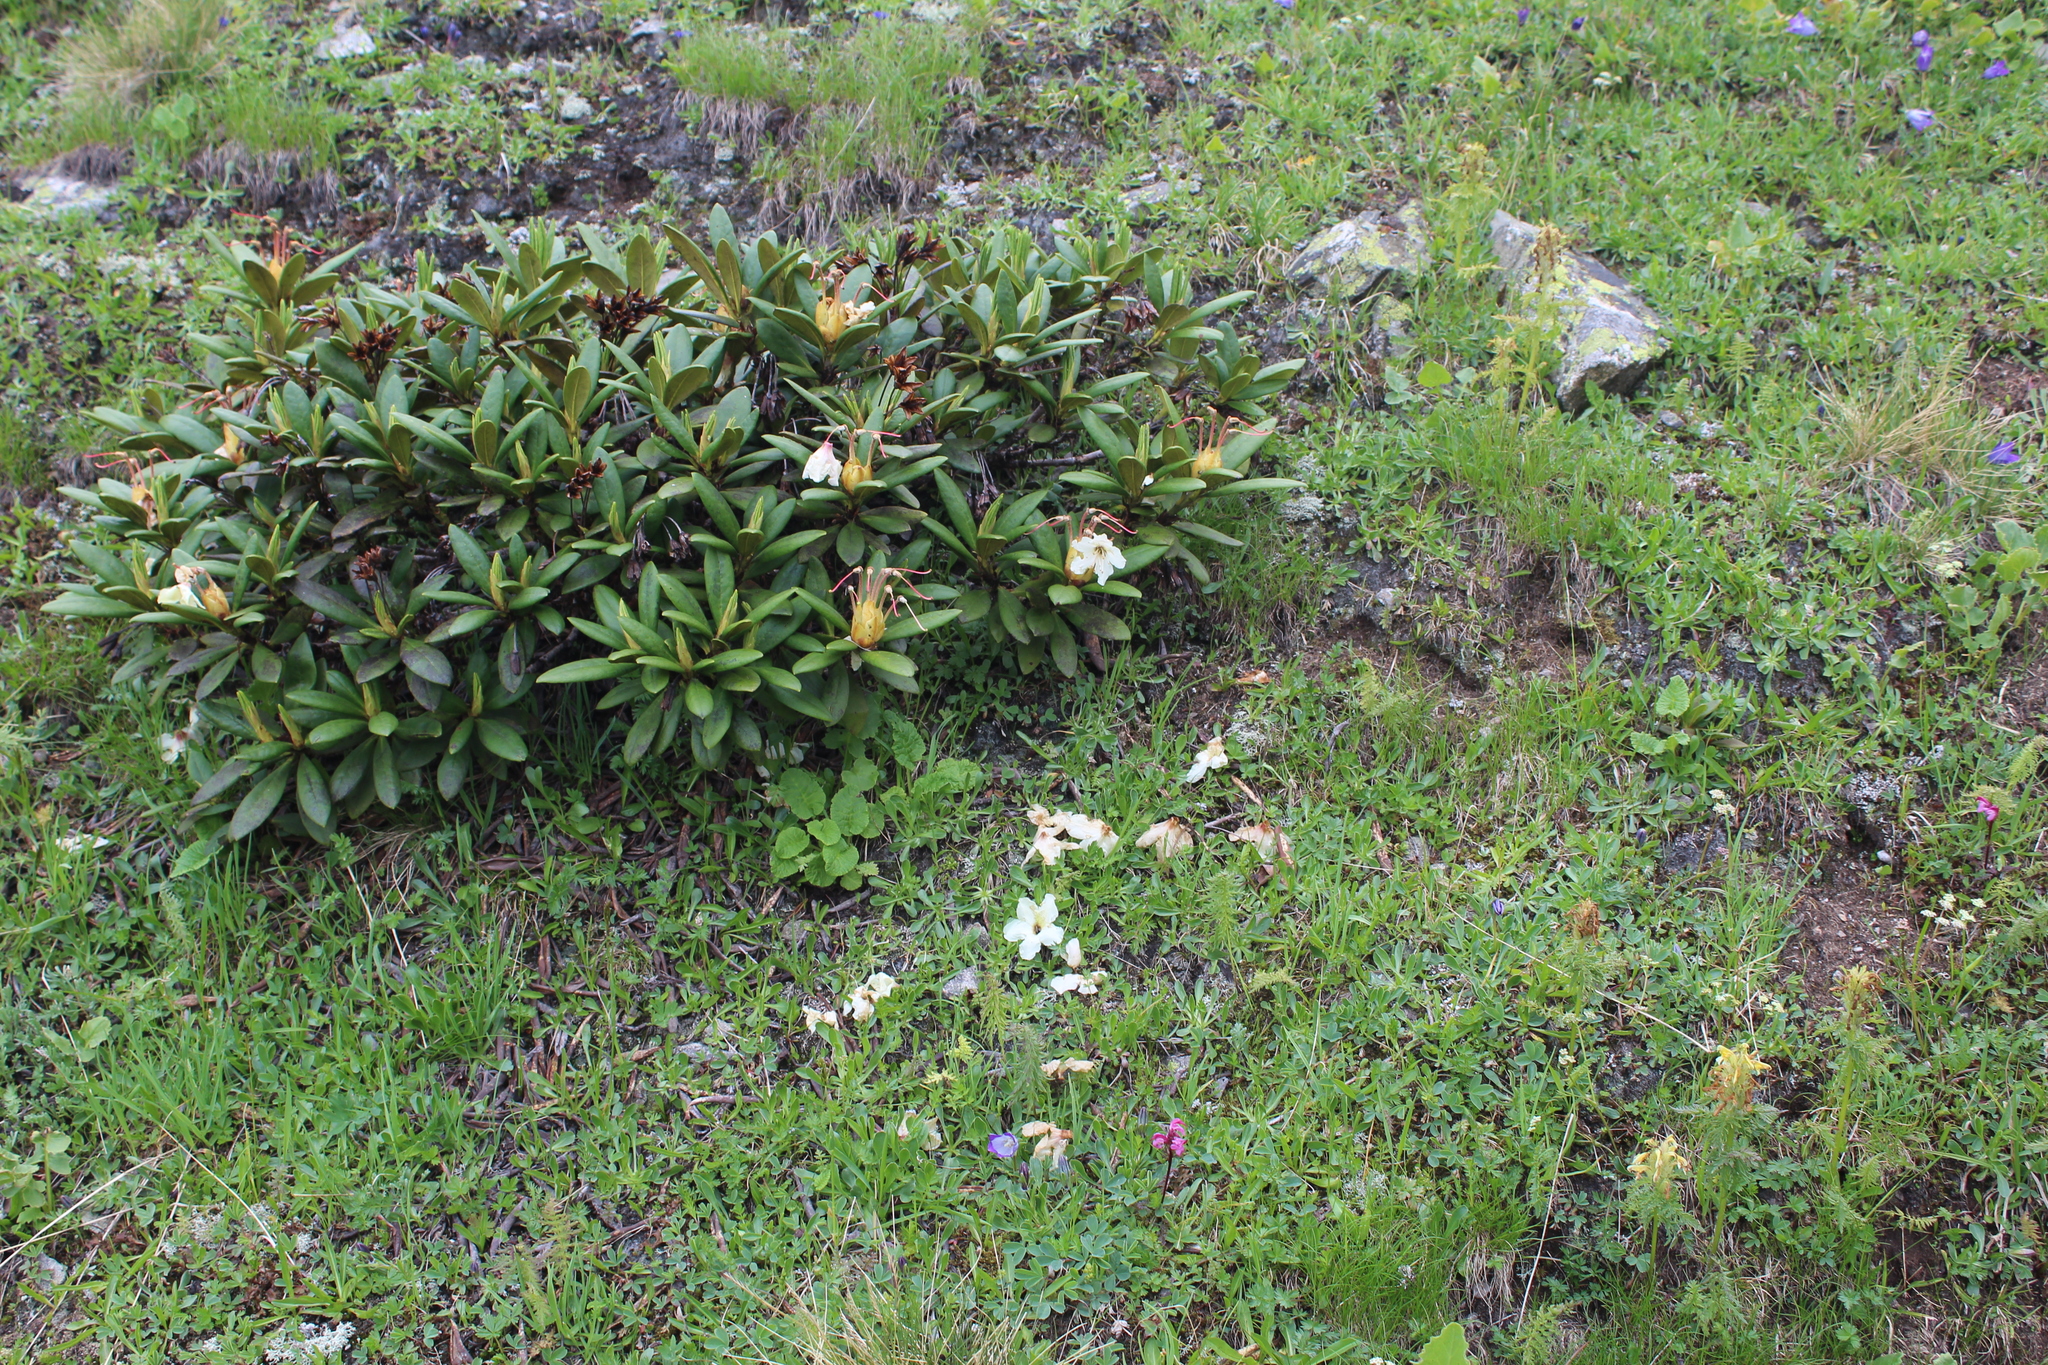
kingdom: Plantae
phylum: Tracheophyta
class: Magnoliopsida
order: Ericales
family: Ericaceae
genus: Rhododendron
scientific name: Rhododendron caucasicum
